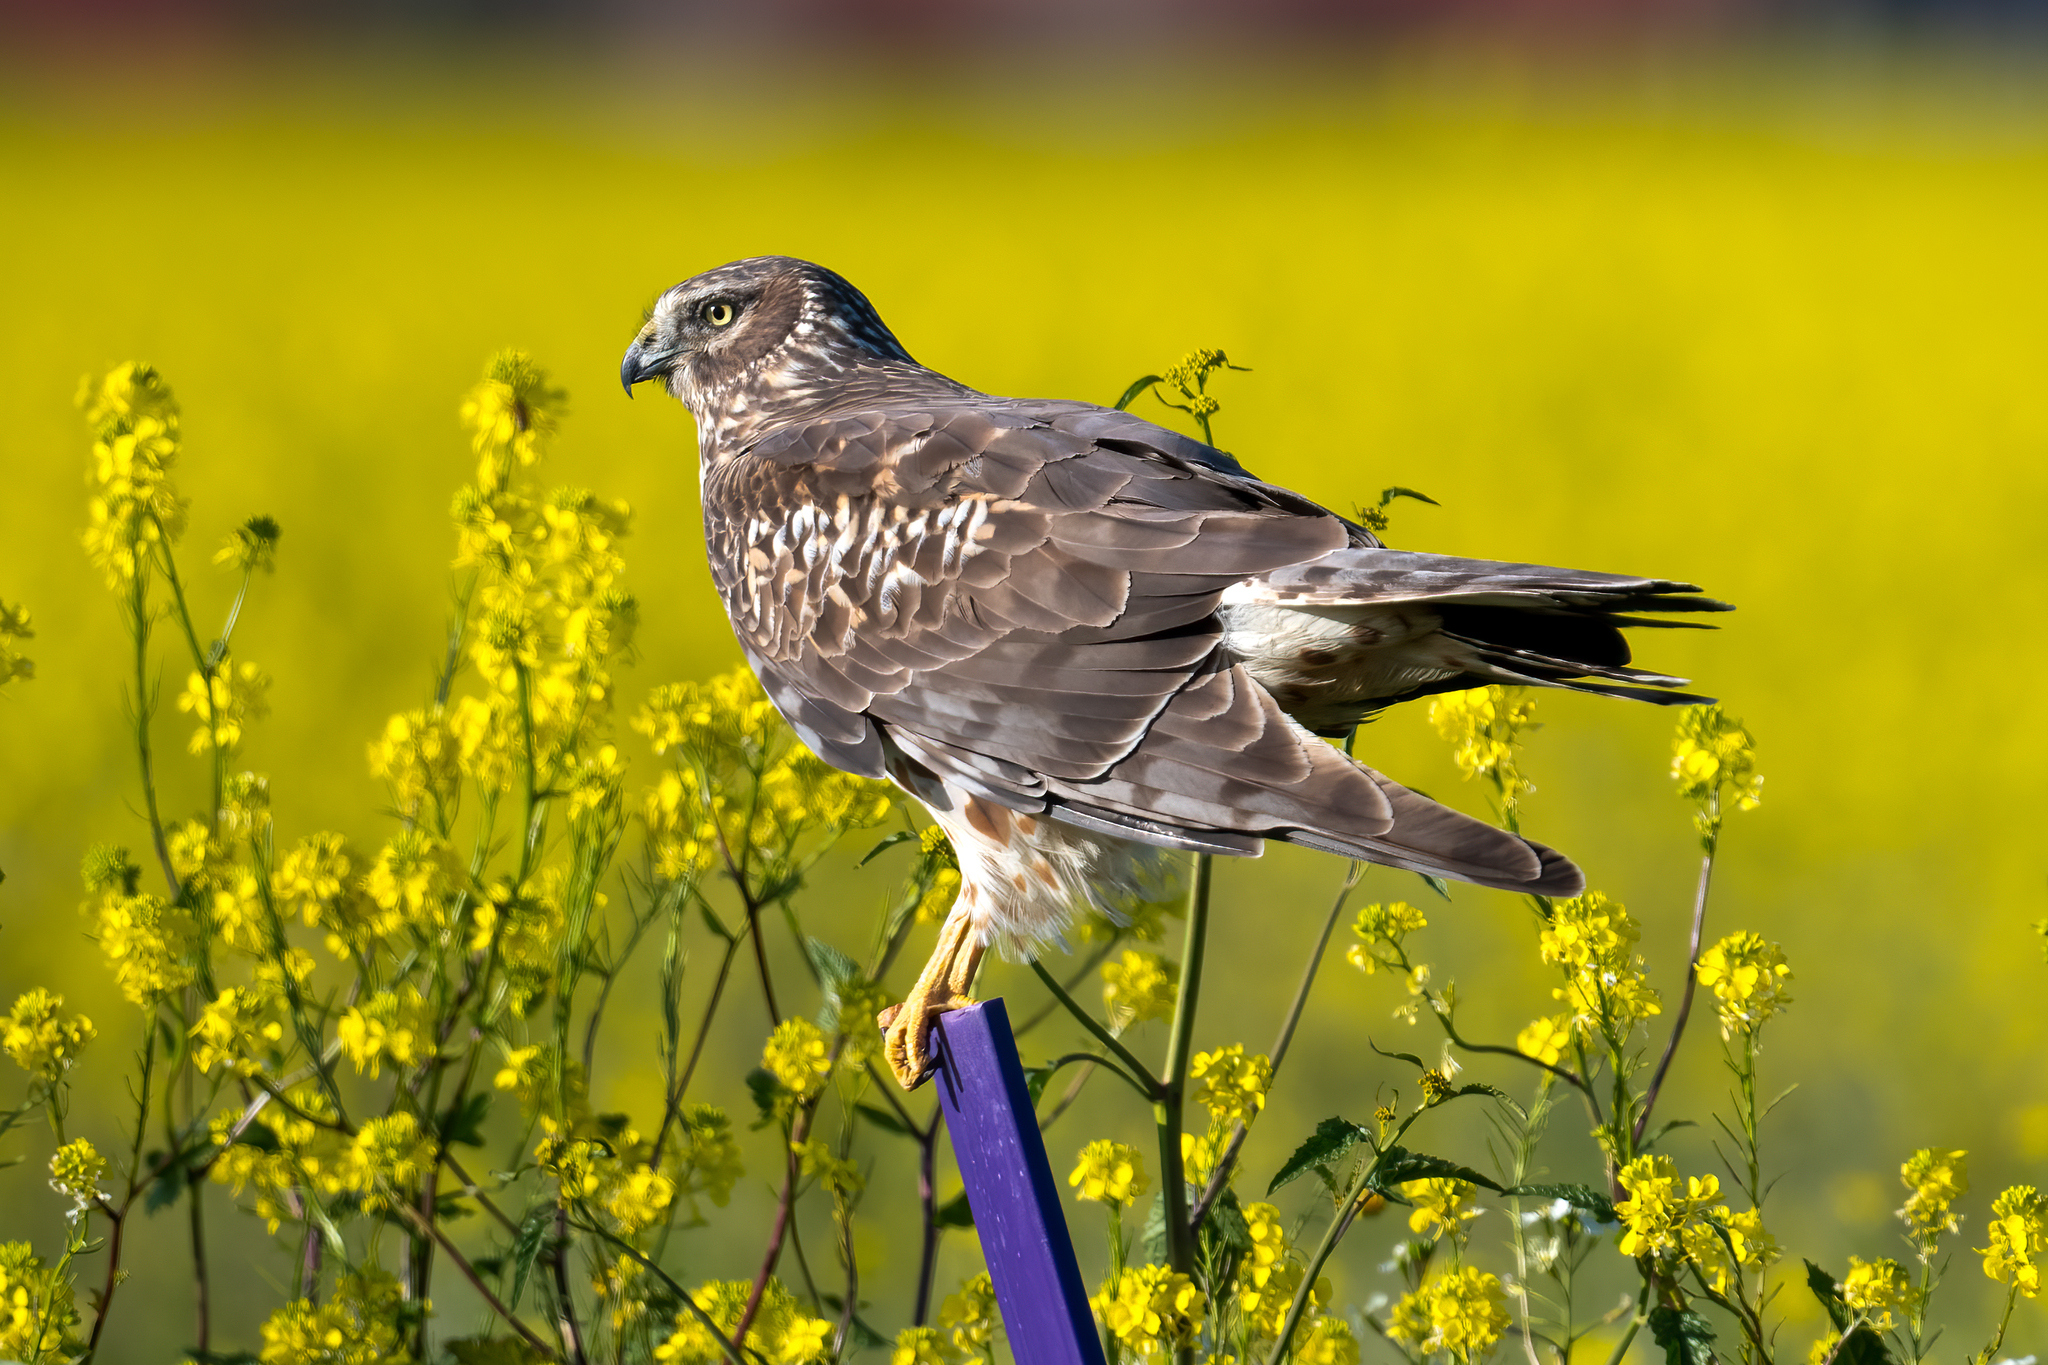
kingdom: Animalia
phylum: Chordata
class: Aves
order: Accipitriformes
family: Accipitridae
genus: Circus
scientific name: Circus cyaneus
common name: Hen harrier
